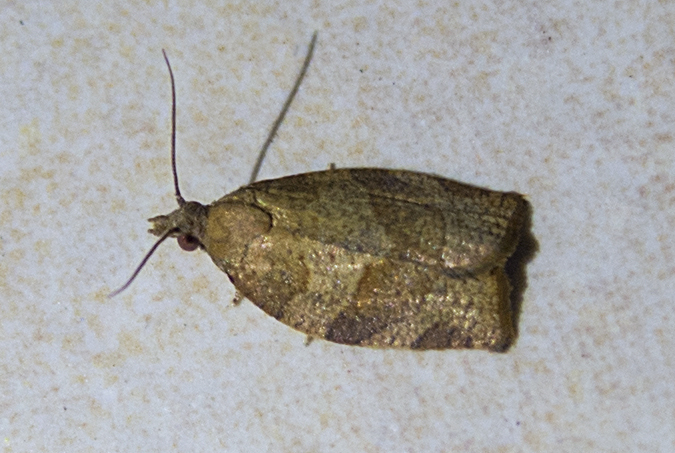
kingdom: Animalia
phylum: Arthropoda
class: Insecta
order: Lepidoptera
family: Tortricidae
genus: Pandemis
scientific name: Pandemis heparana
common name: Dark fruit-tree tortrix
